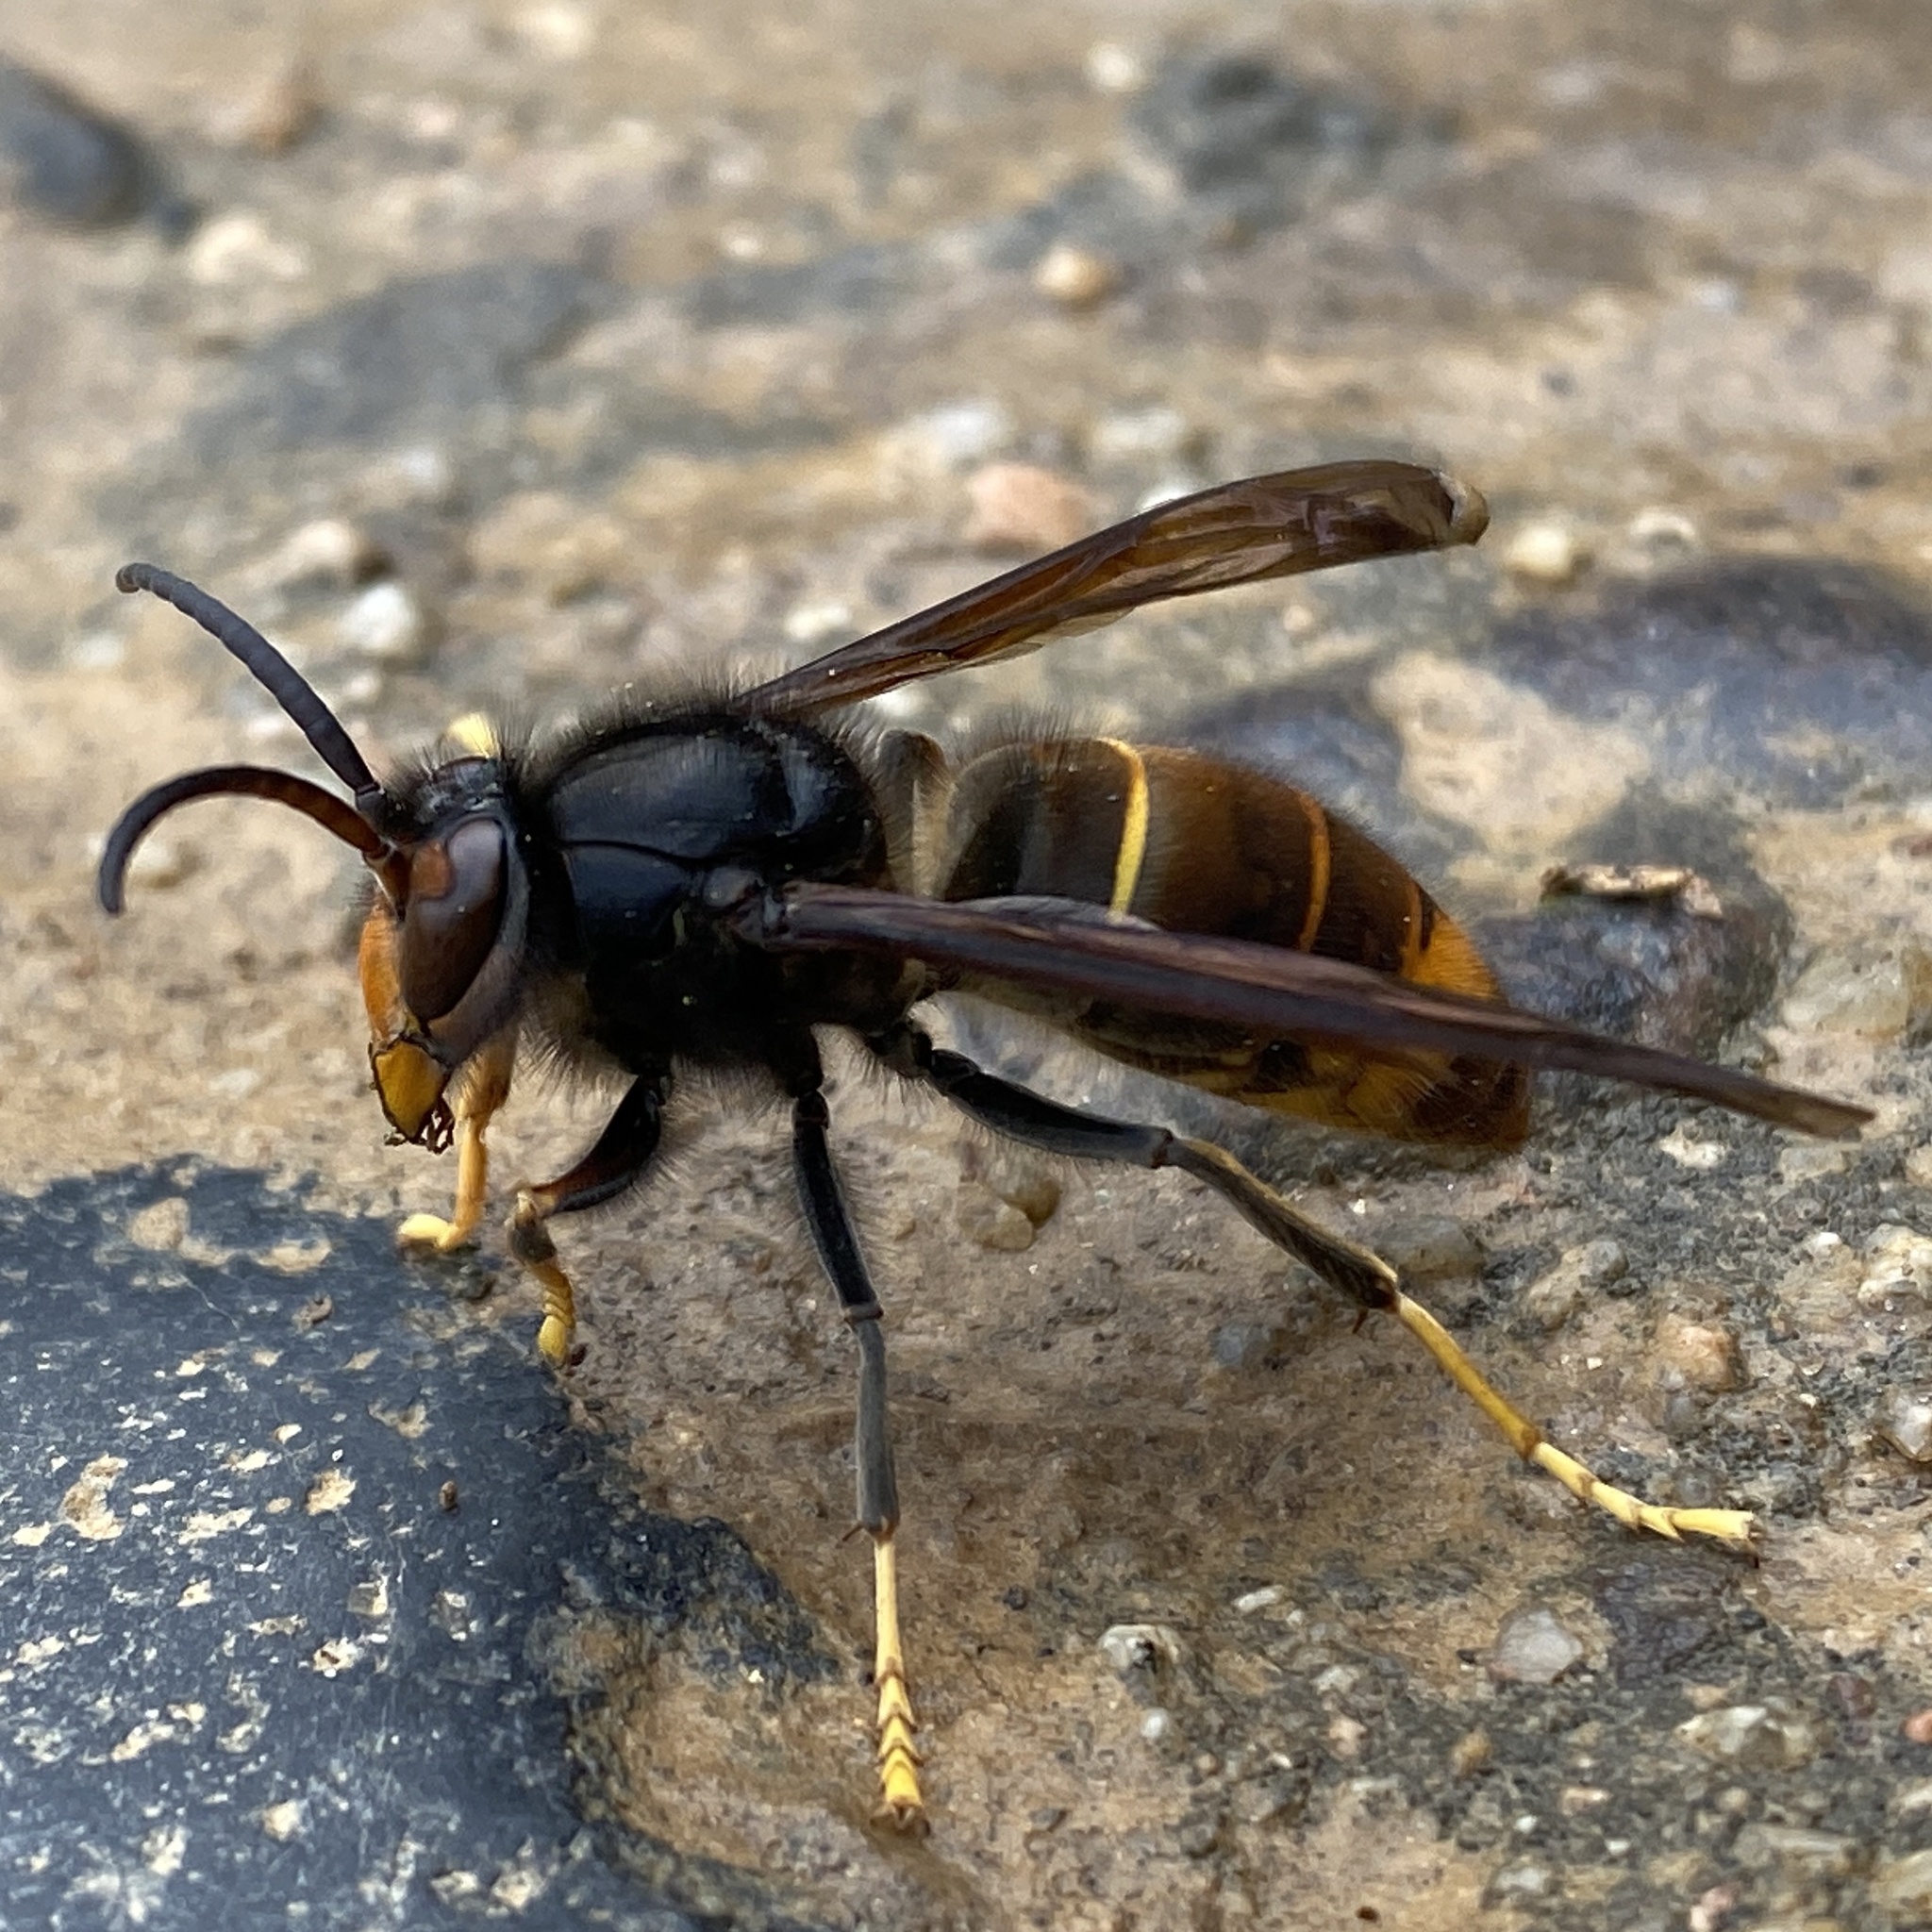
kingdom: Animalia
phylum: Arthropoda
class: Insecta
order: Hymenoptera
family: Vespidae
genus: Vespa
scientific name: Vespa velutina
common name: Asian hornet
